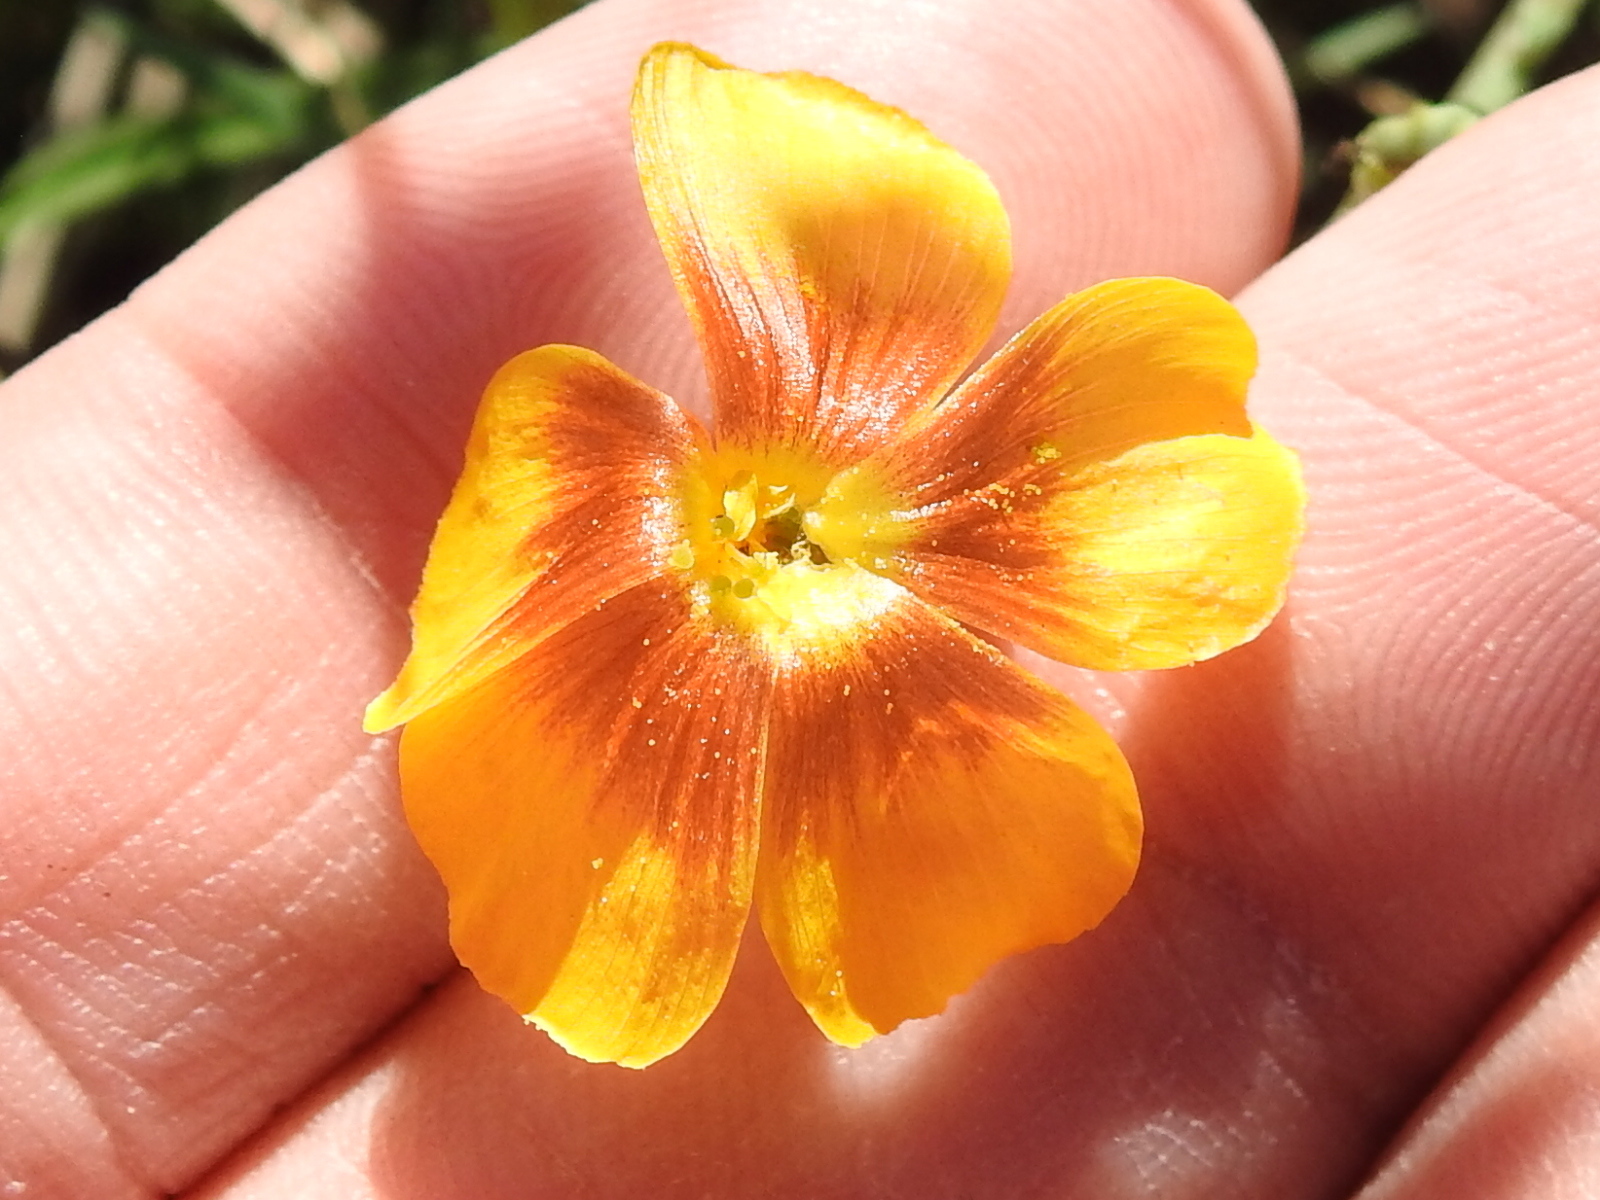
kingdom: Plantae
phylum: Tracheophyta
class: Magnoliopsida
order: Malpighiales
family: Linaceae
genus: Linum
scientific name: Linum berlandieri
